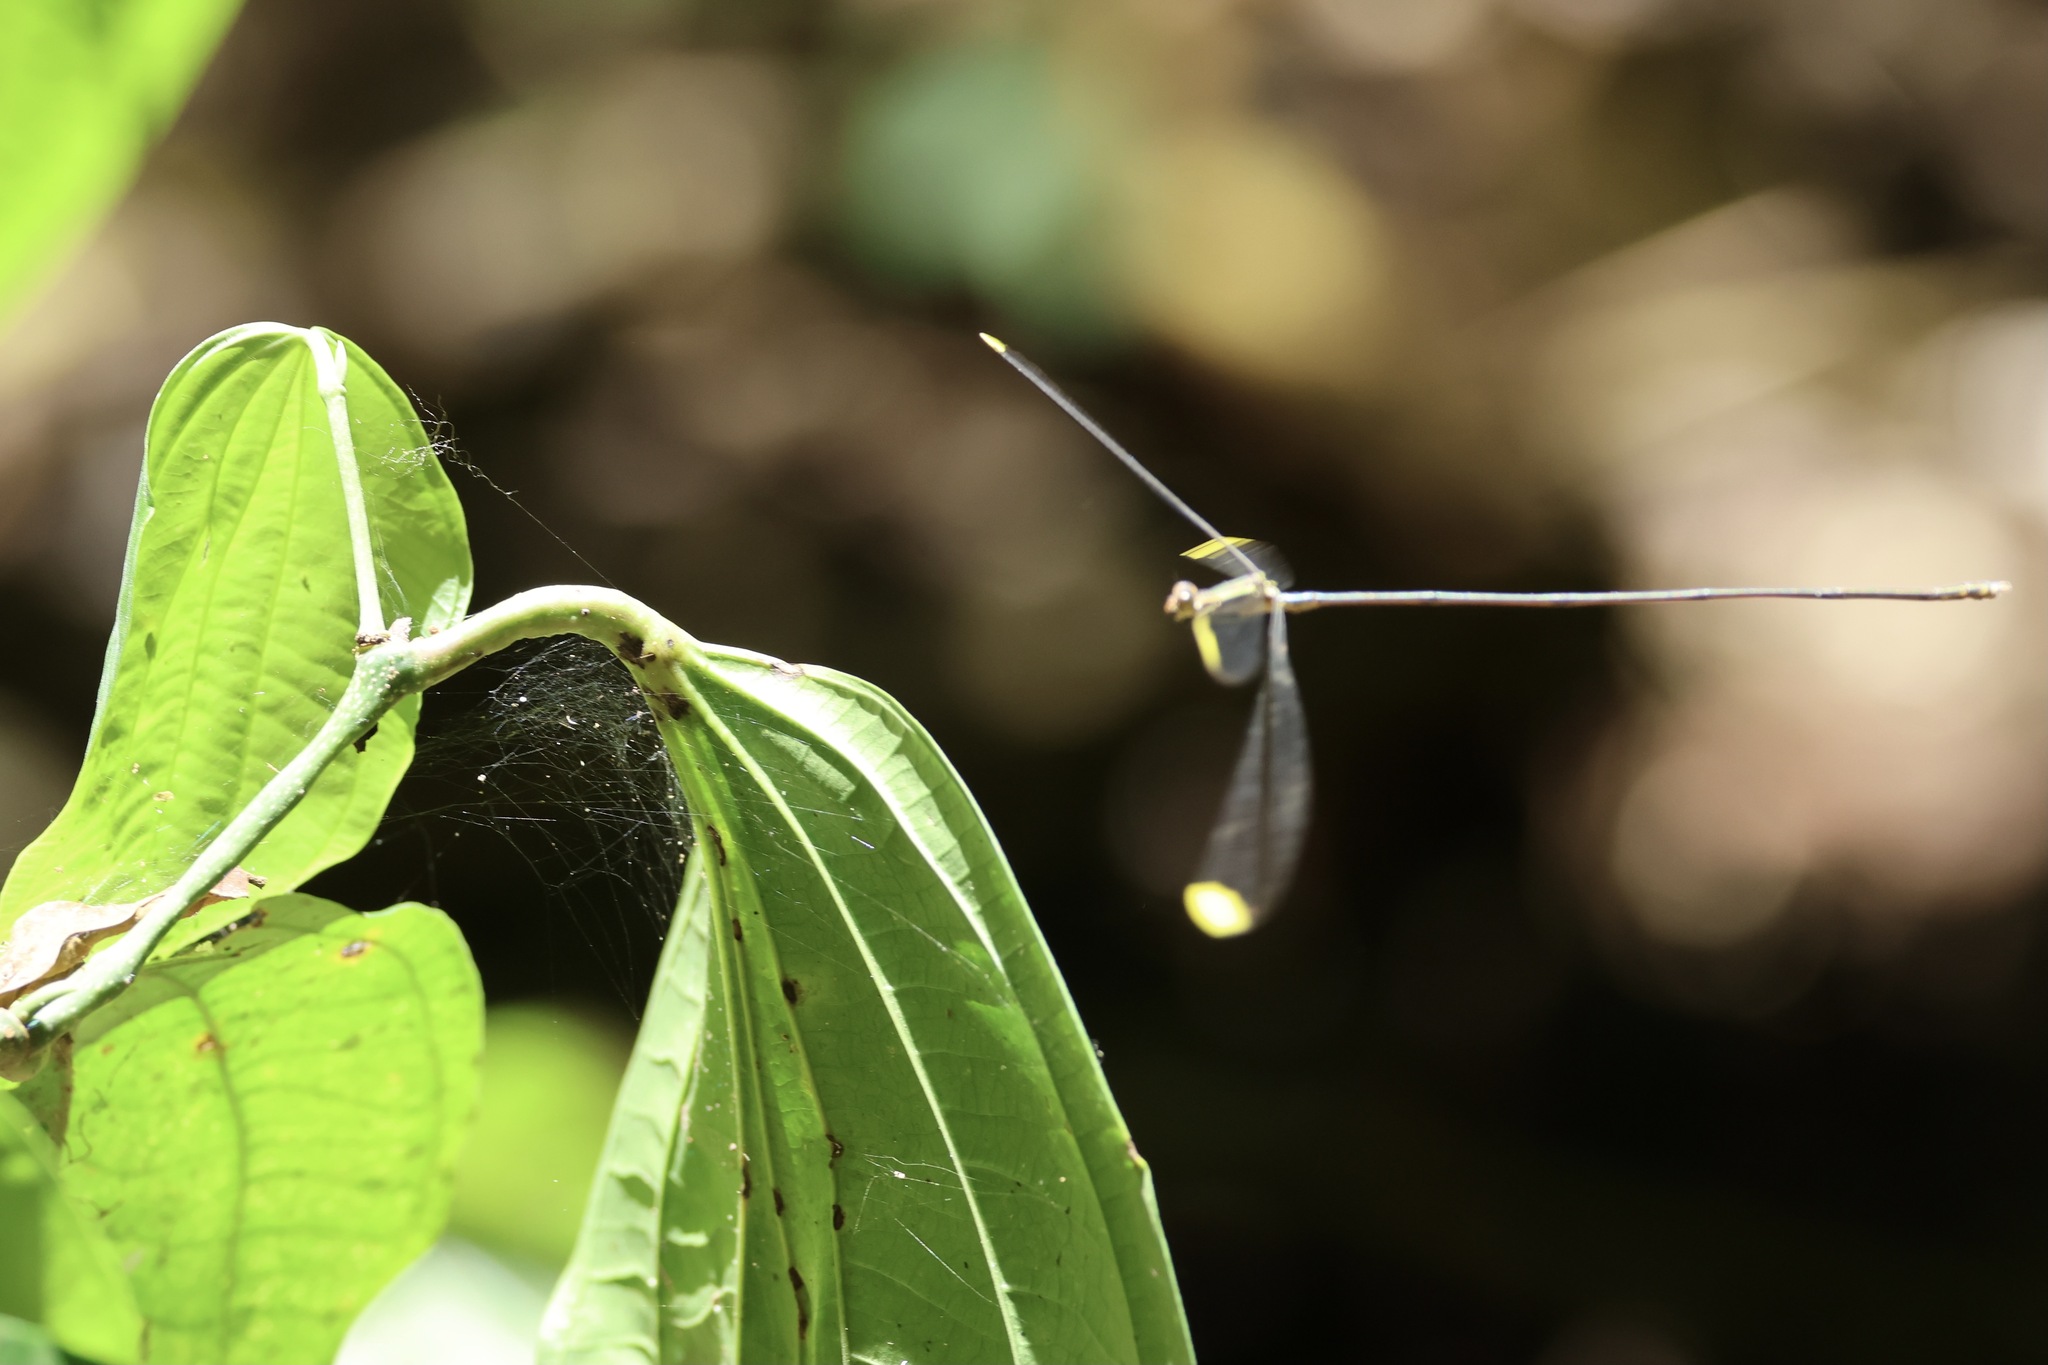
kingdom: Animalia
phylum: Arthropoda
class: Insecta
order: Odonata
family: Coenagrionidae
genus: Mecistogaster
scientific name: Mecistogaster ornata
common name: Ornate helicopter
